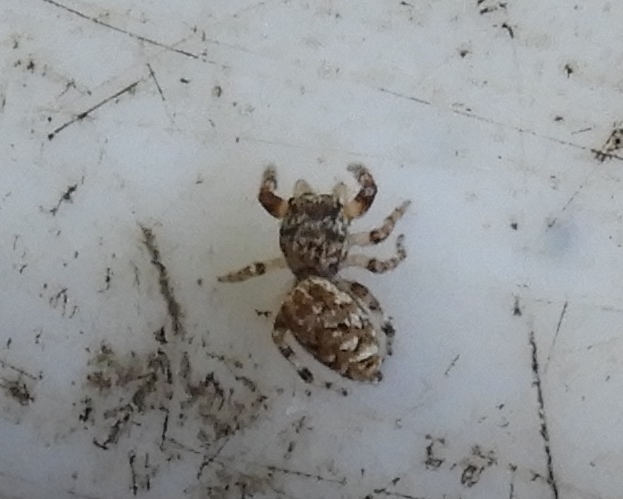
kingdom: Animalia
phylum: Arthropoda
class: Arachnida
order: Araneae
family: Salticidae
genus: Pelegrina
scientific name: Pelegrina
